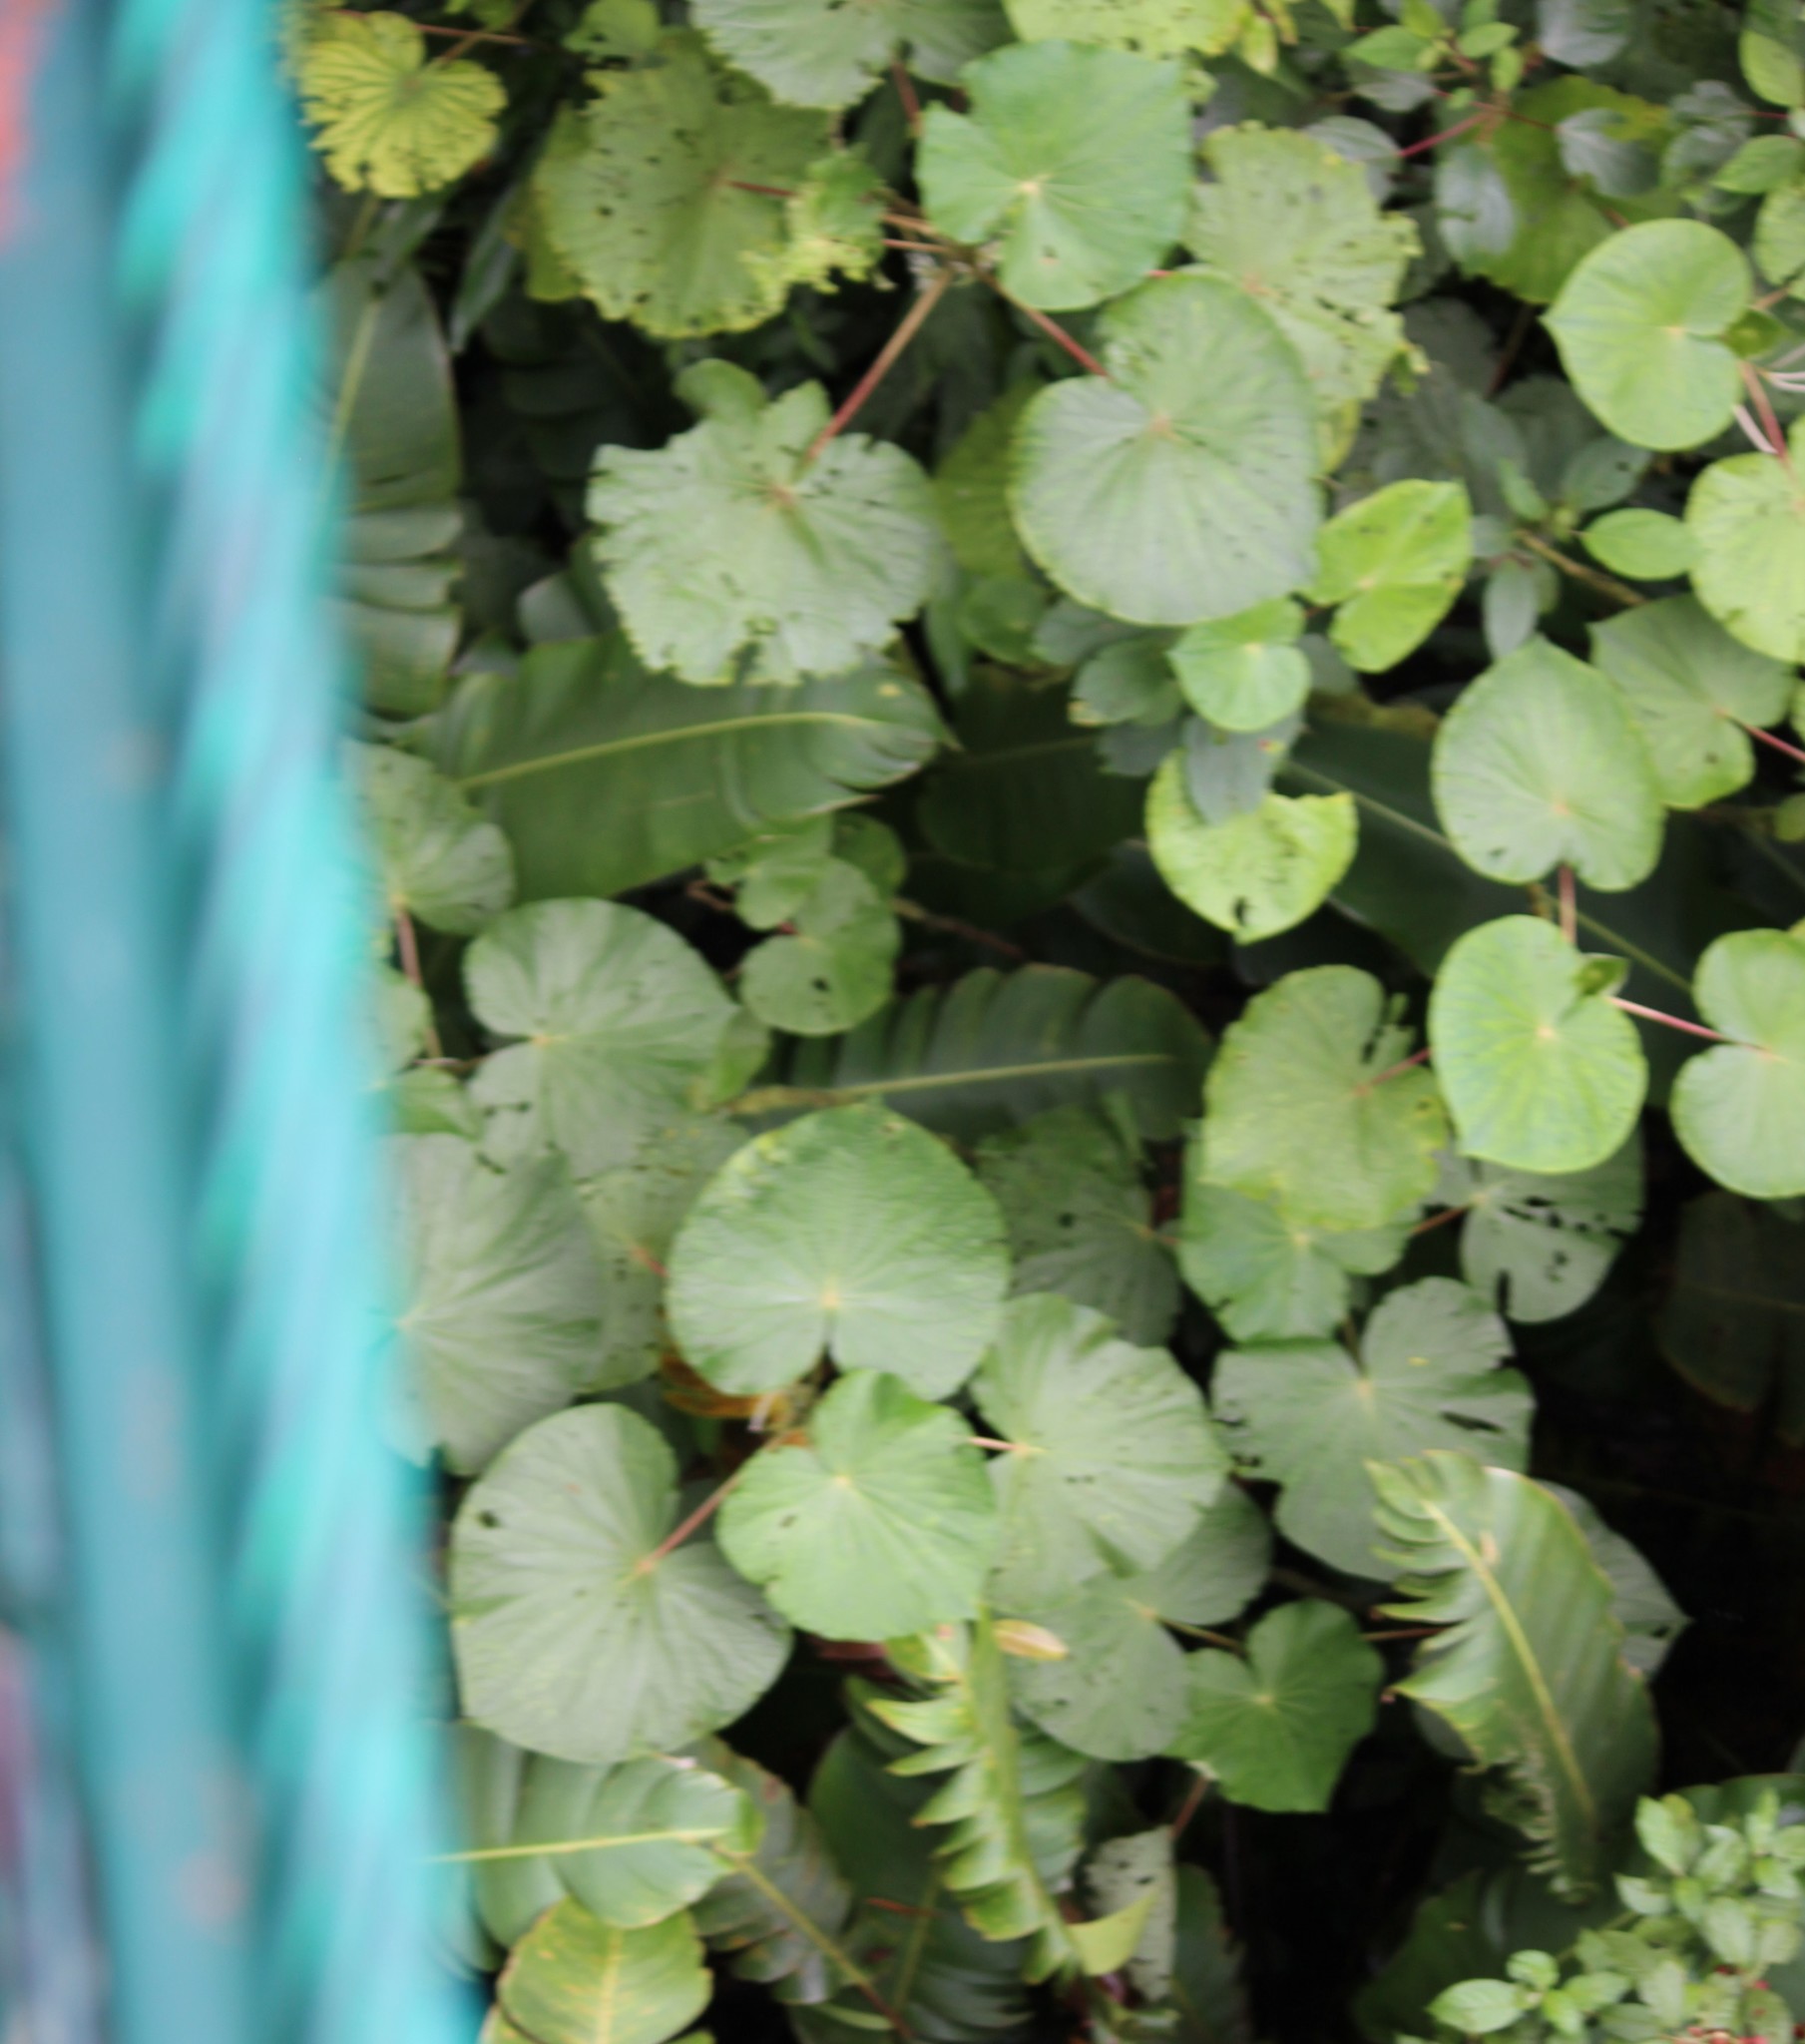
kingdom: Plantae
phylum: Tracheophyta
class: Magnoliopsida
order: Piperales
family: Piperaceae
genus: Piper
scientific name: Piper umbellatum
